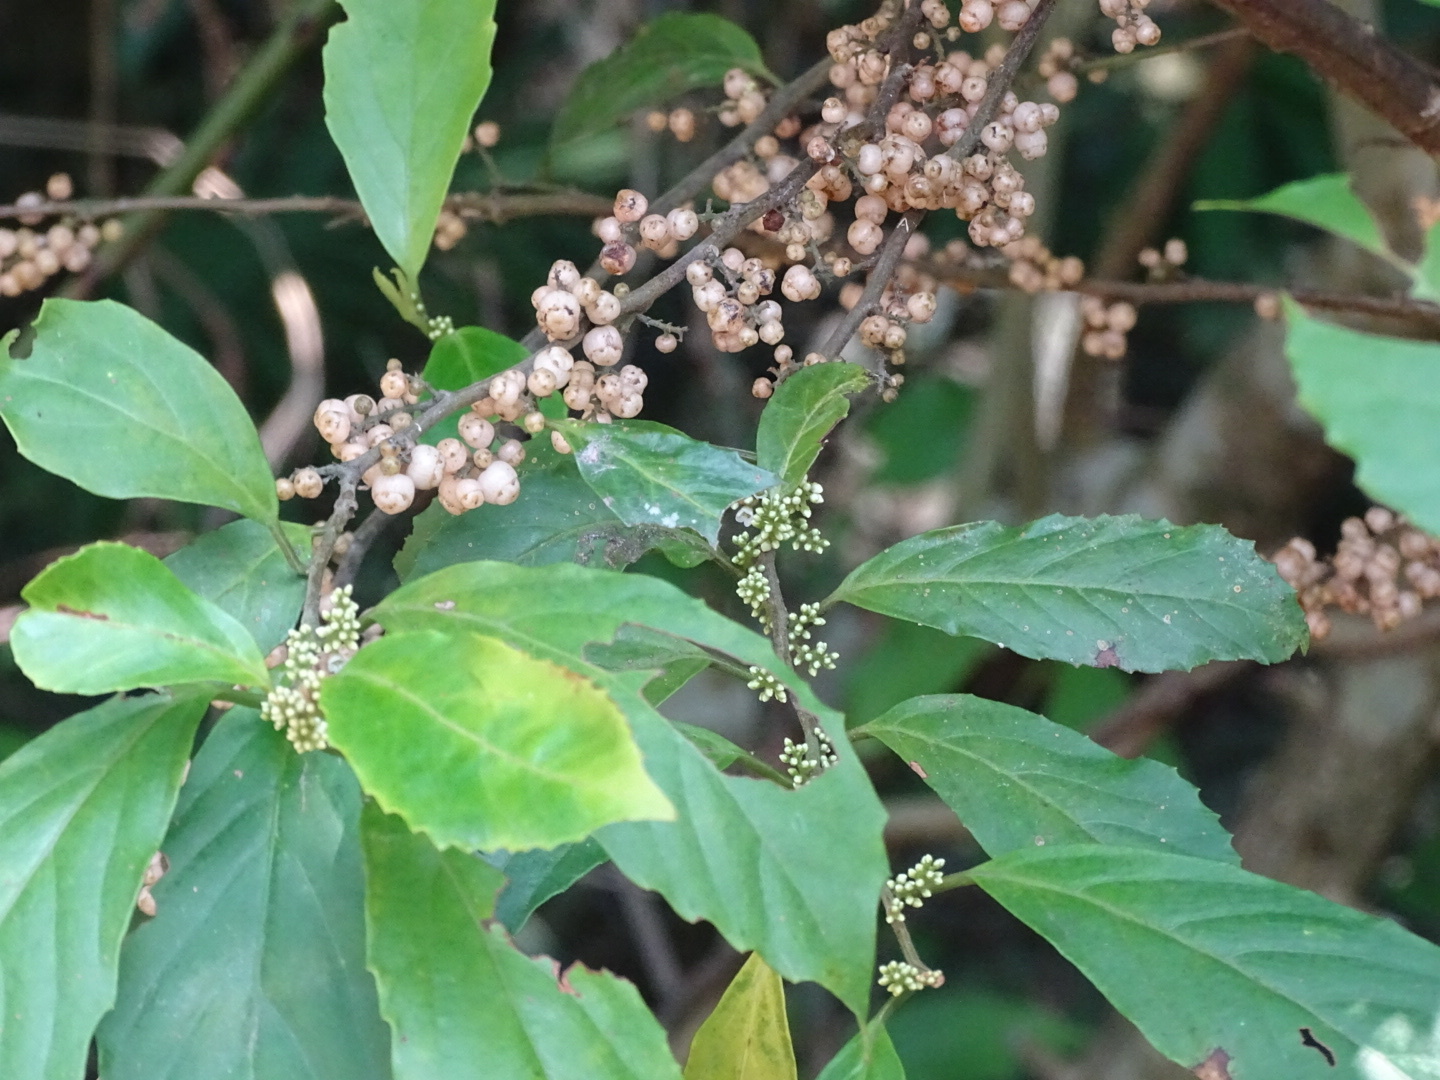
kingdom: Plantae
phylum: Tracheophyta
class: Magnoliopsida
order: Ericales
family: Primulaceae
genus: Maesa
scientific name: Maesa perlaria
